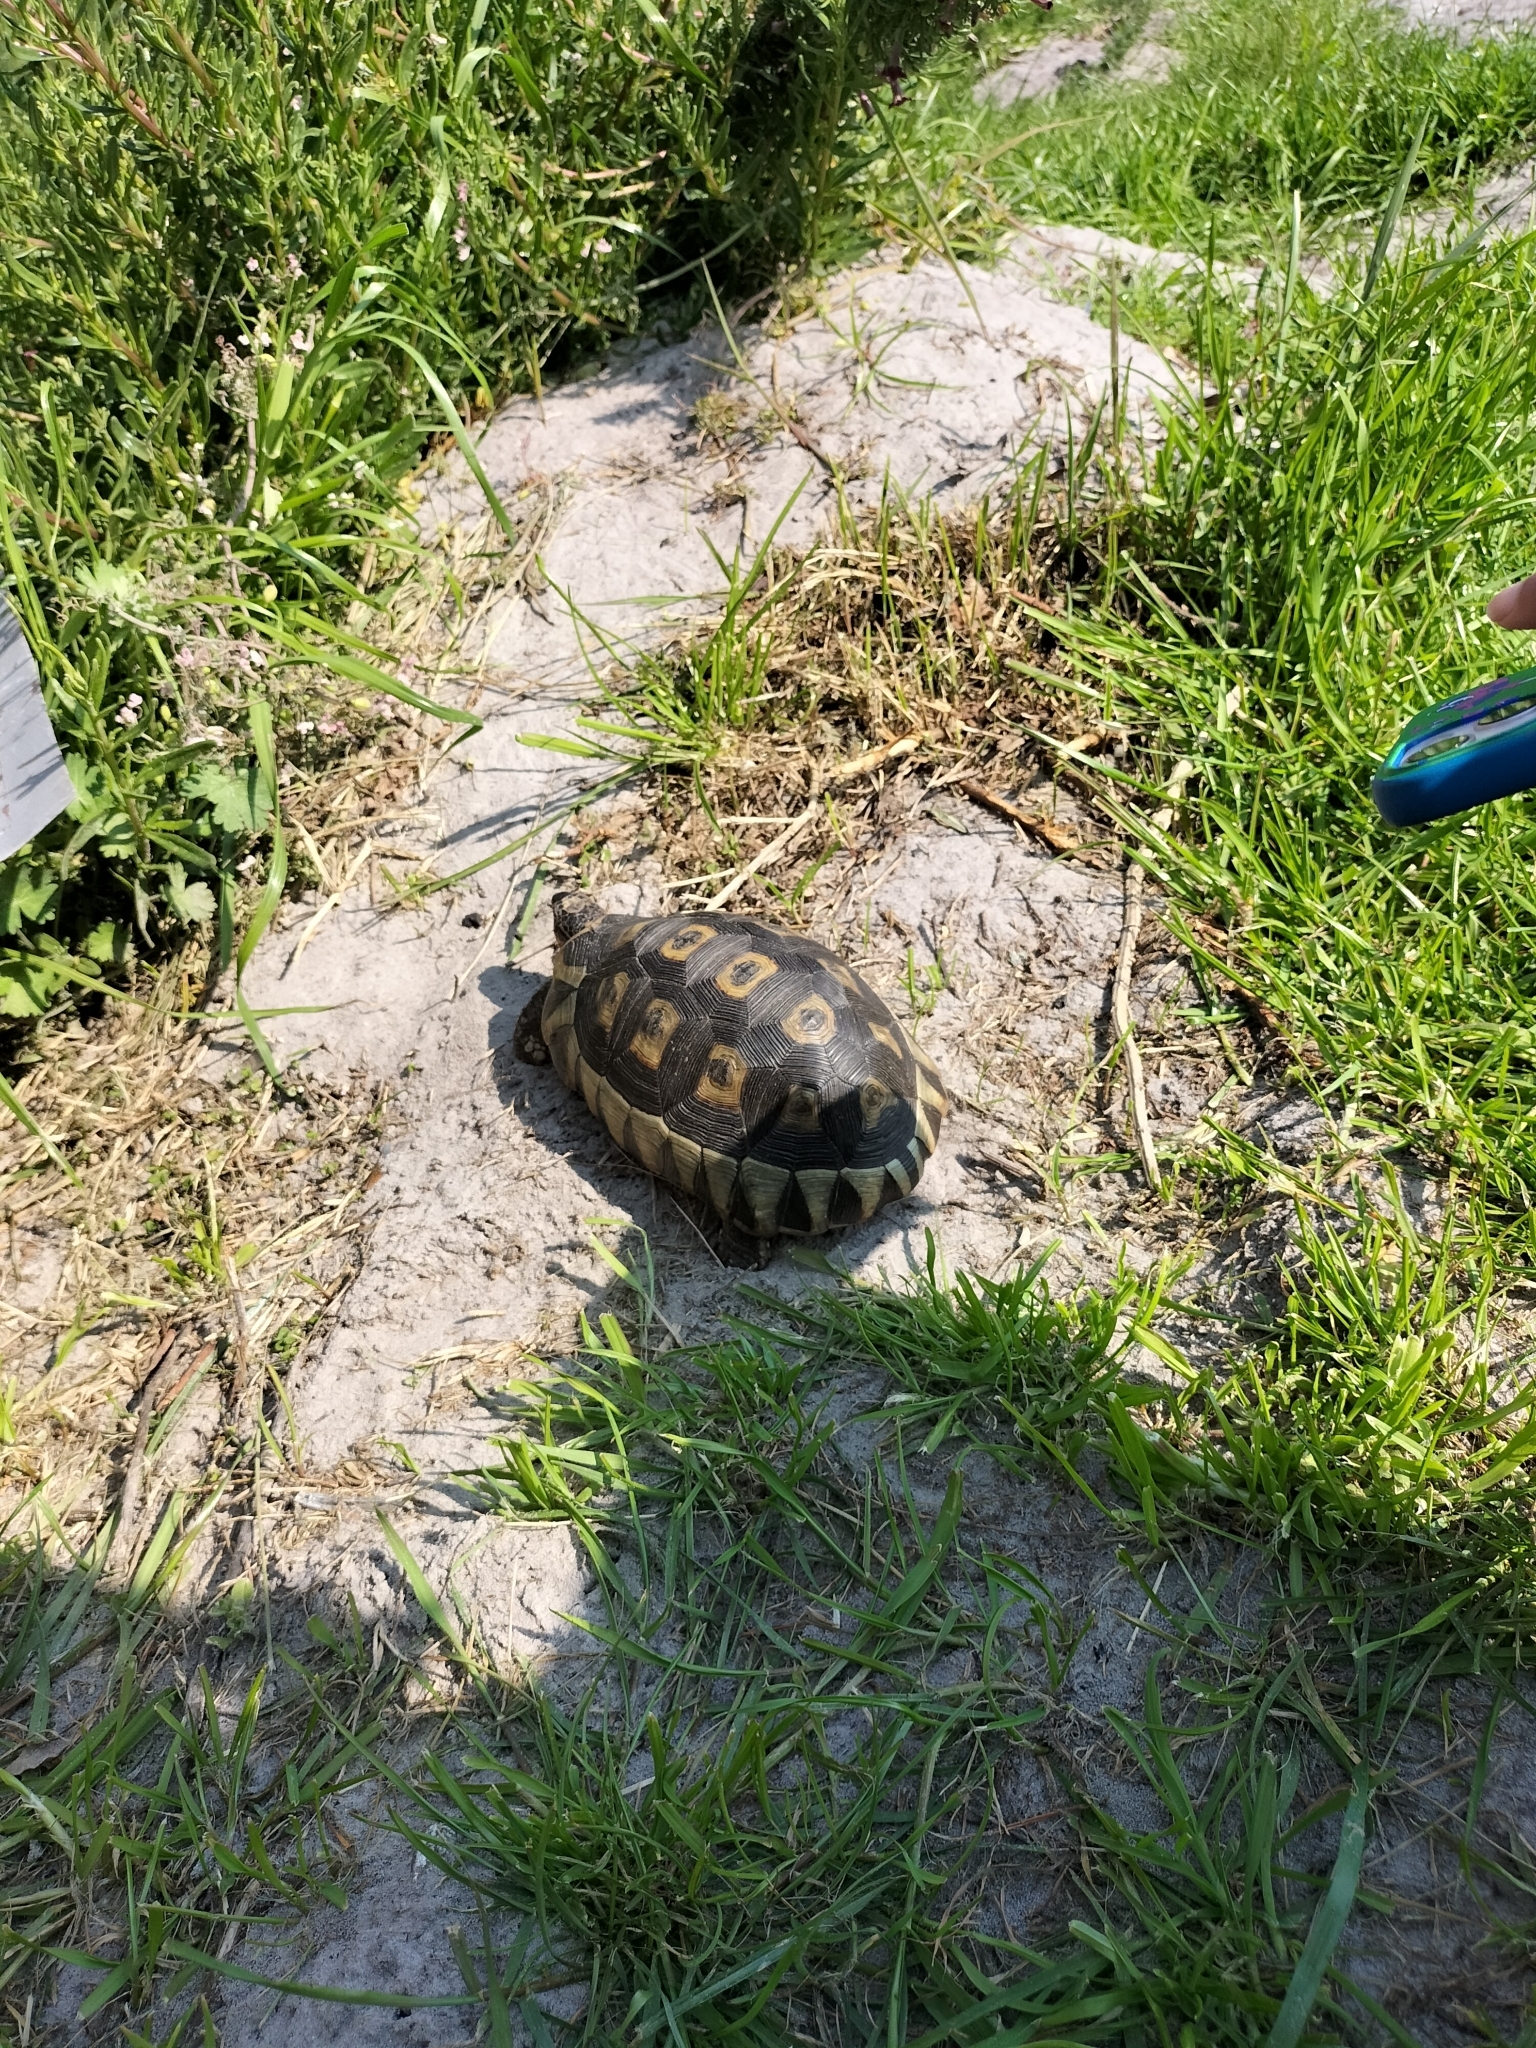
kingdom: Animalia
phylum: Chordata
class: Testudines
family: Testudinidae
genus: Chersina
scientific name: Chersina angulata
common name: South african bowsprit tortoise
